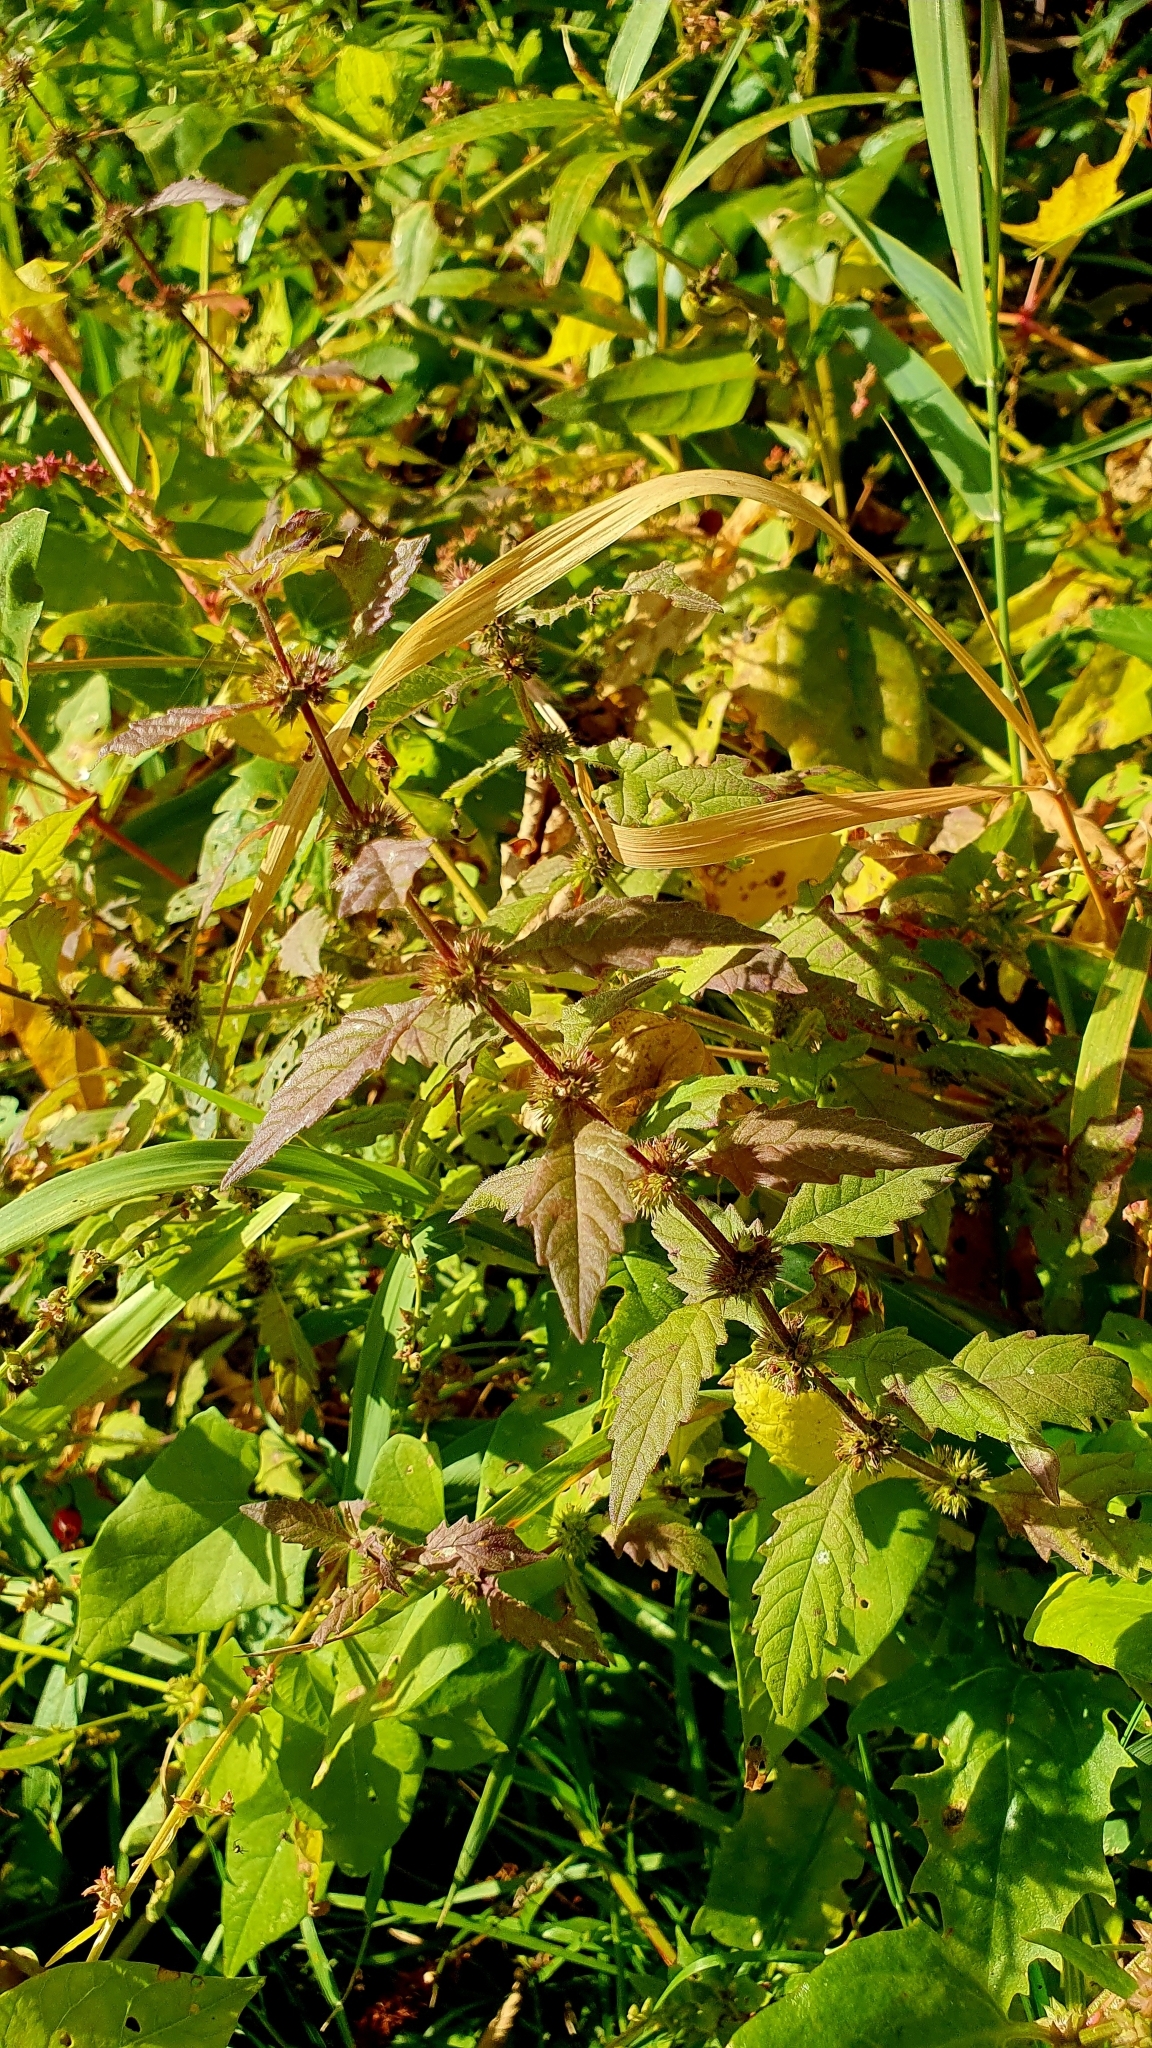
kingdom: Plantae
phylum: Tracheophyta
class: Magnoliopsida
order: Lamiales
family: Lamiaceae
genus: Lycopus
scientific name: Lycopus europaeus
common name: European bugleweed
